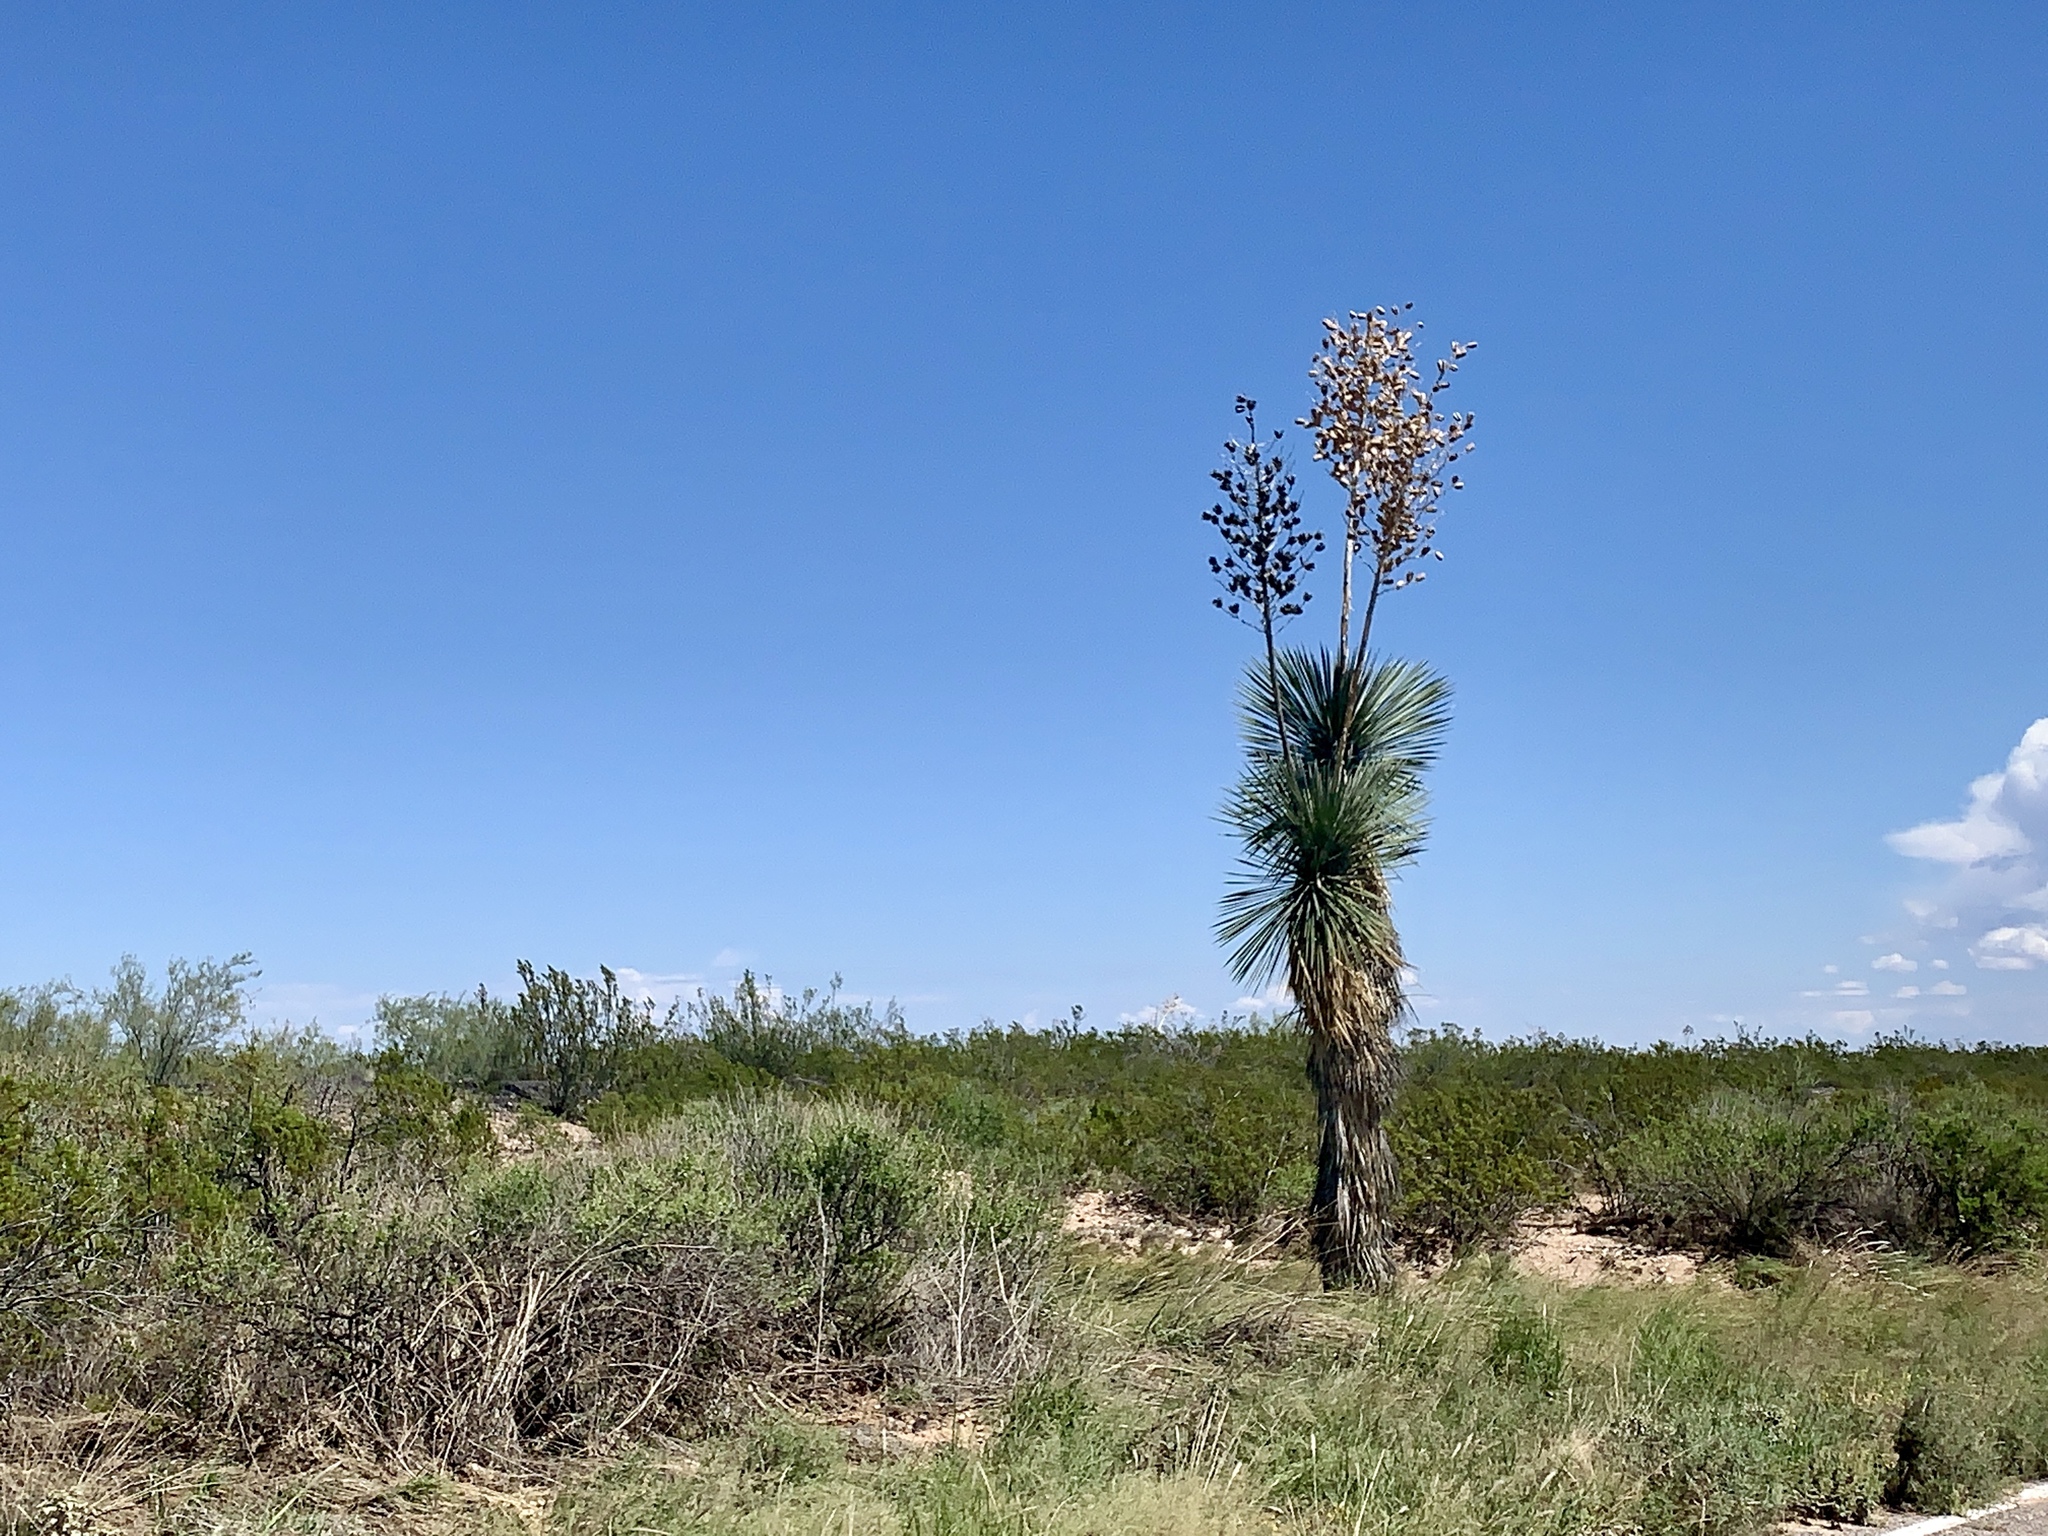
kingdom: Plantae
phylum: Tracheophyta
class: Liliopsida
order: Asparagales
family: Asparagaceae
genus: Yucca
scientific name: Yucca elata
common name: Palmella
